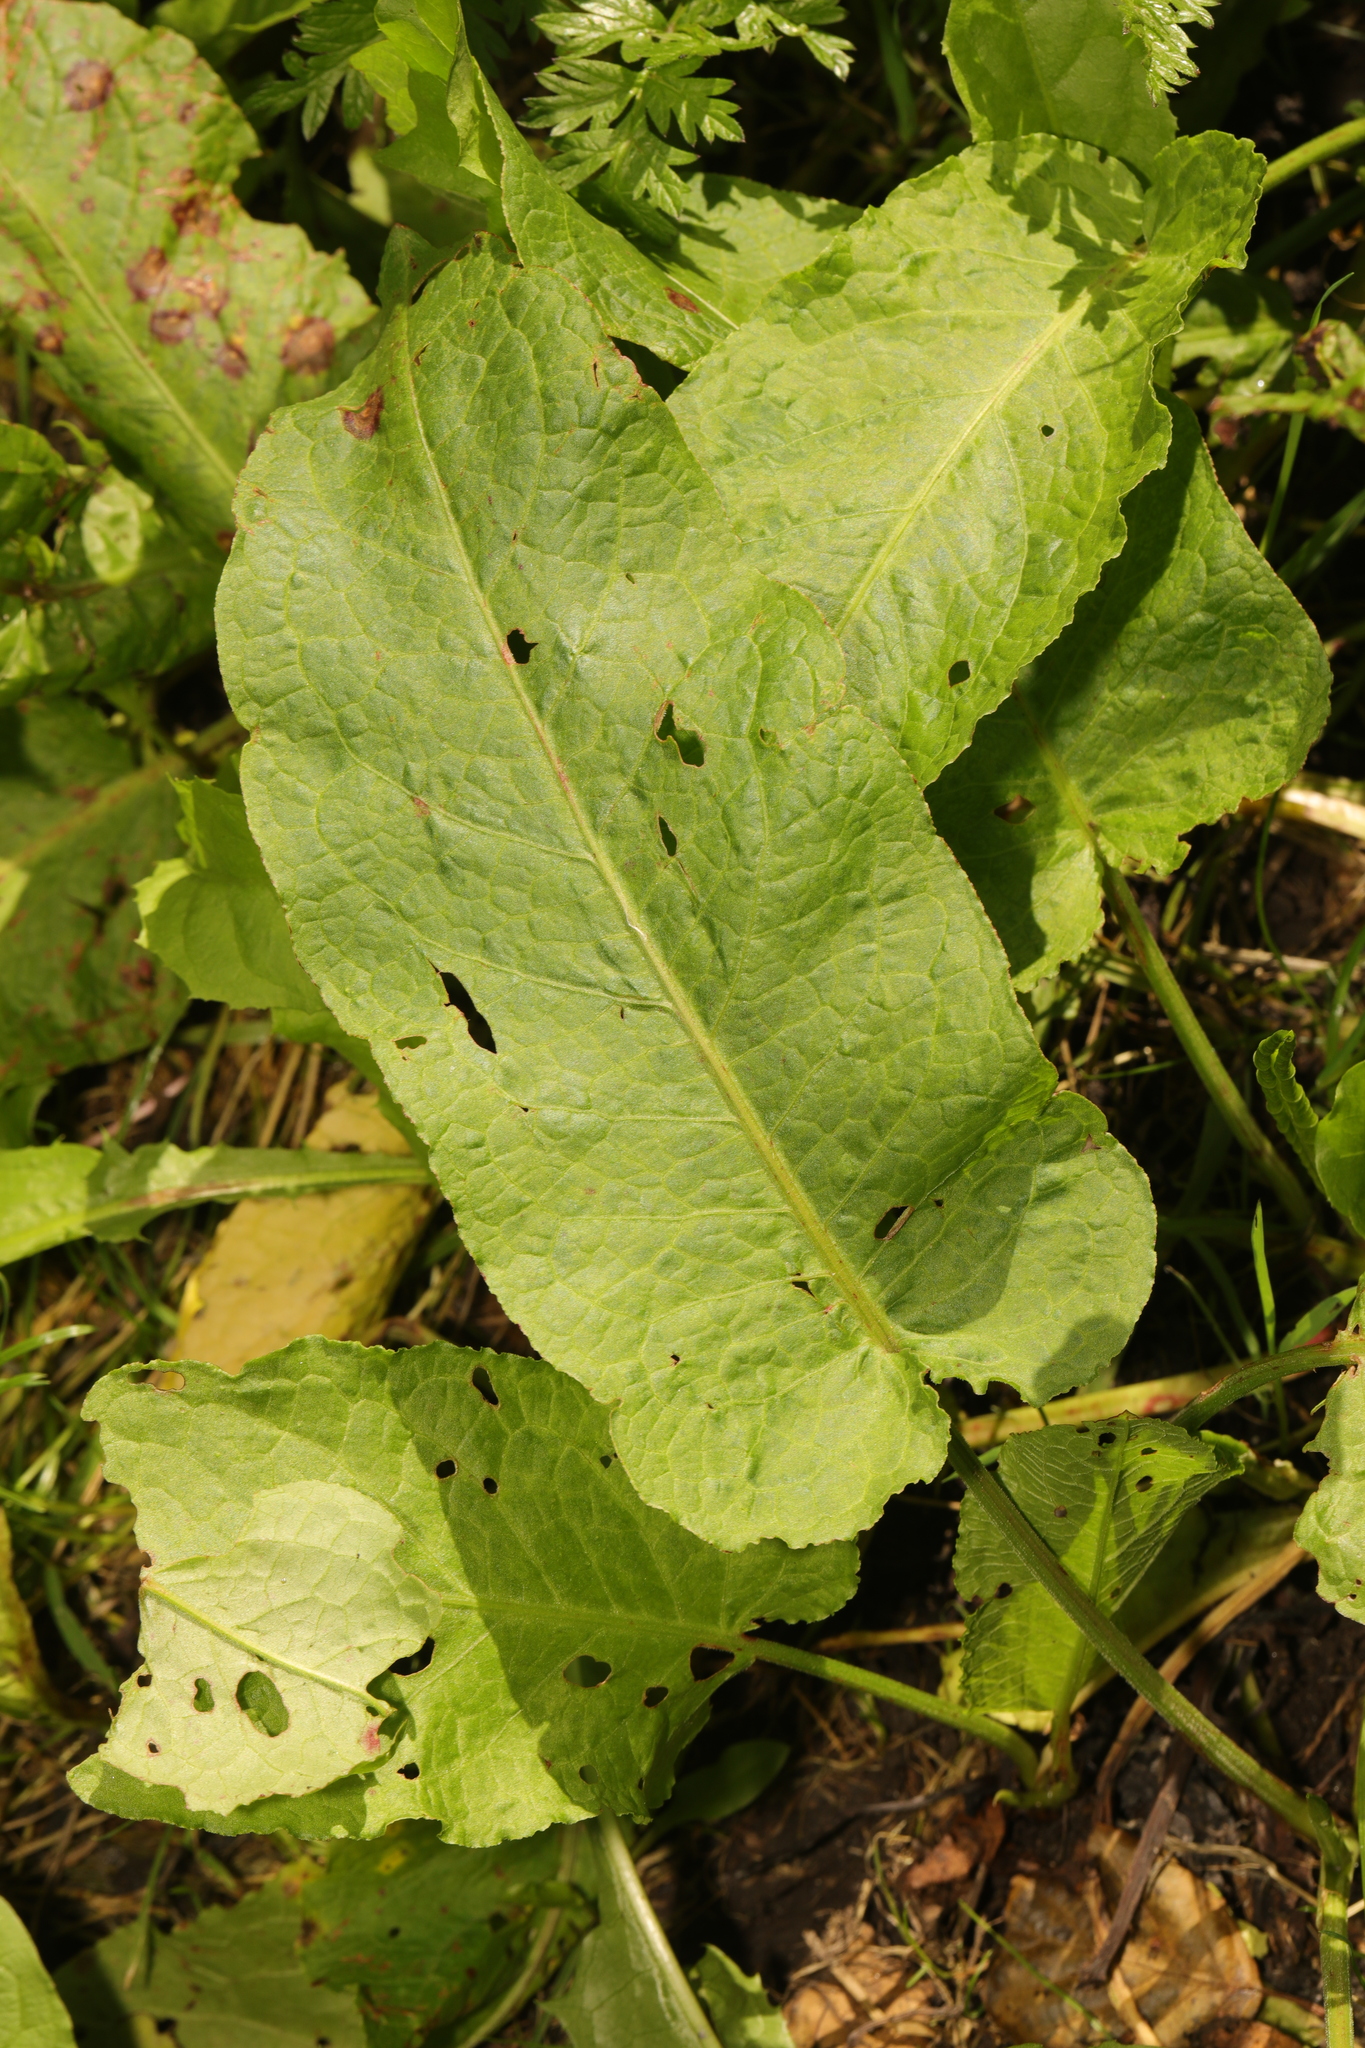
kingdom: Plantae
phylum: Tracheophyta
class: Magnoliopsida
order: Caryophyllales
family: Polygonaceae
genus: Rumex
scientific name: Rumex obtusifolius
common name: Bitter dock
